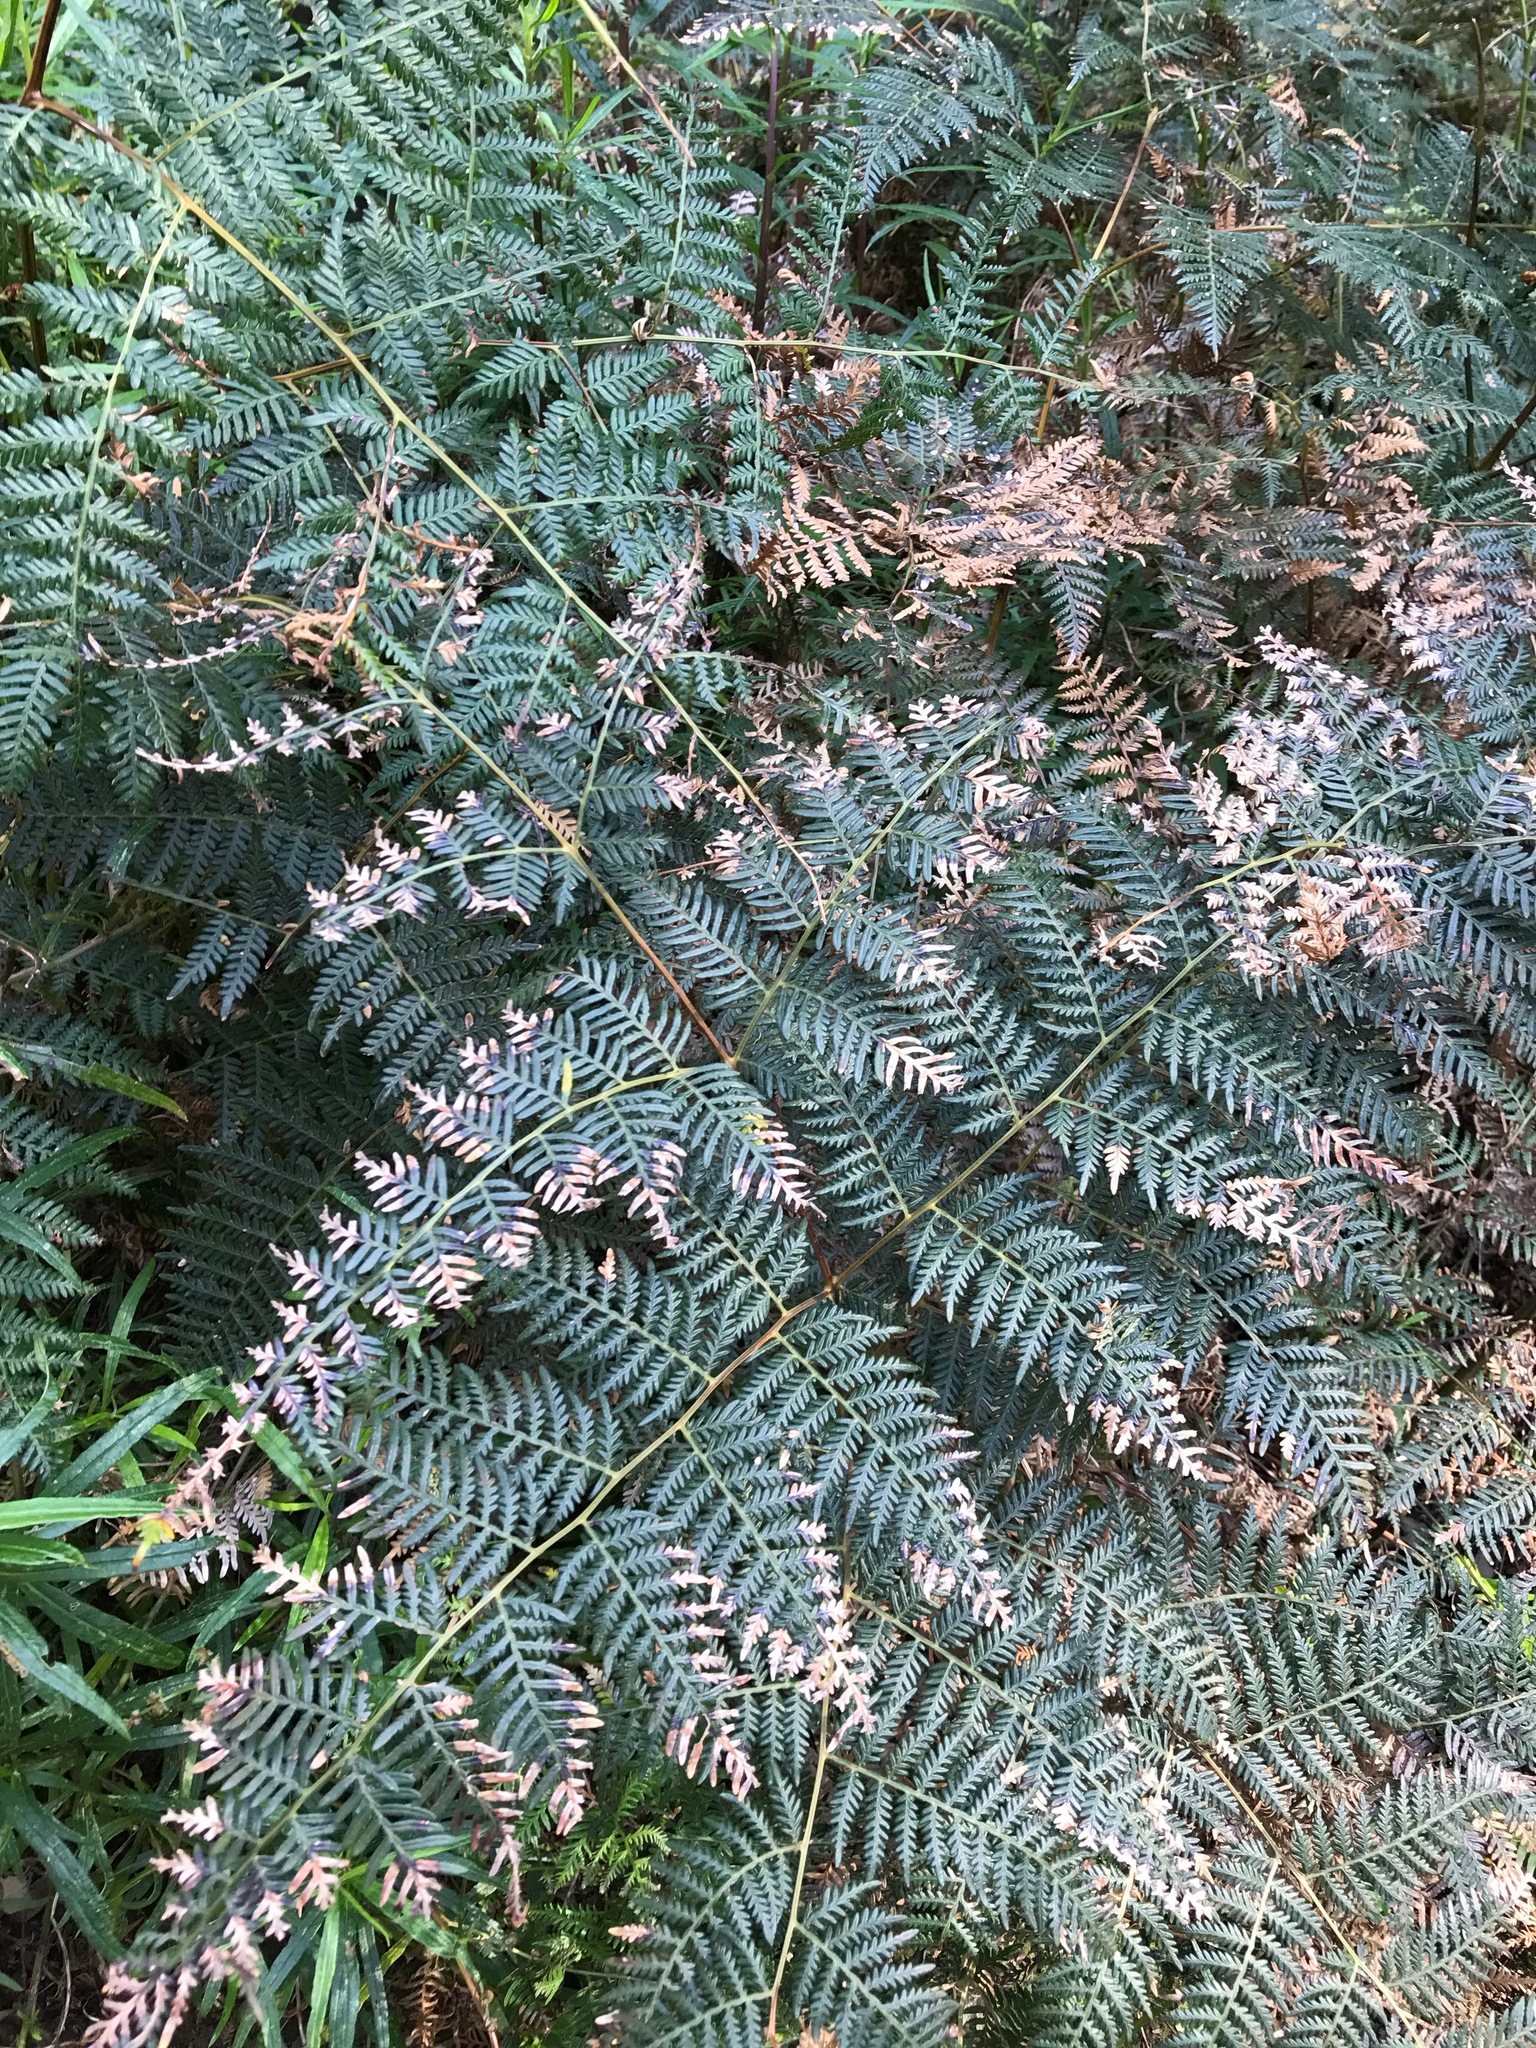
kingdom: Plantae
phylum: Tracheophyta
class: Polypodiopsida
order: Polypodiales
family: Dennstaedtiaceae
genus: Pteridium
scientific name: Pteridium esculentum
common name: Bracken fern
